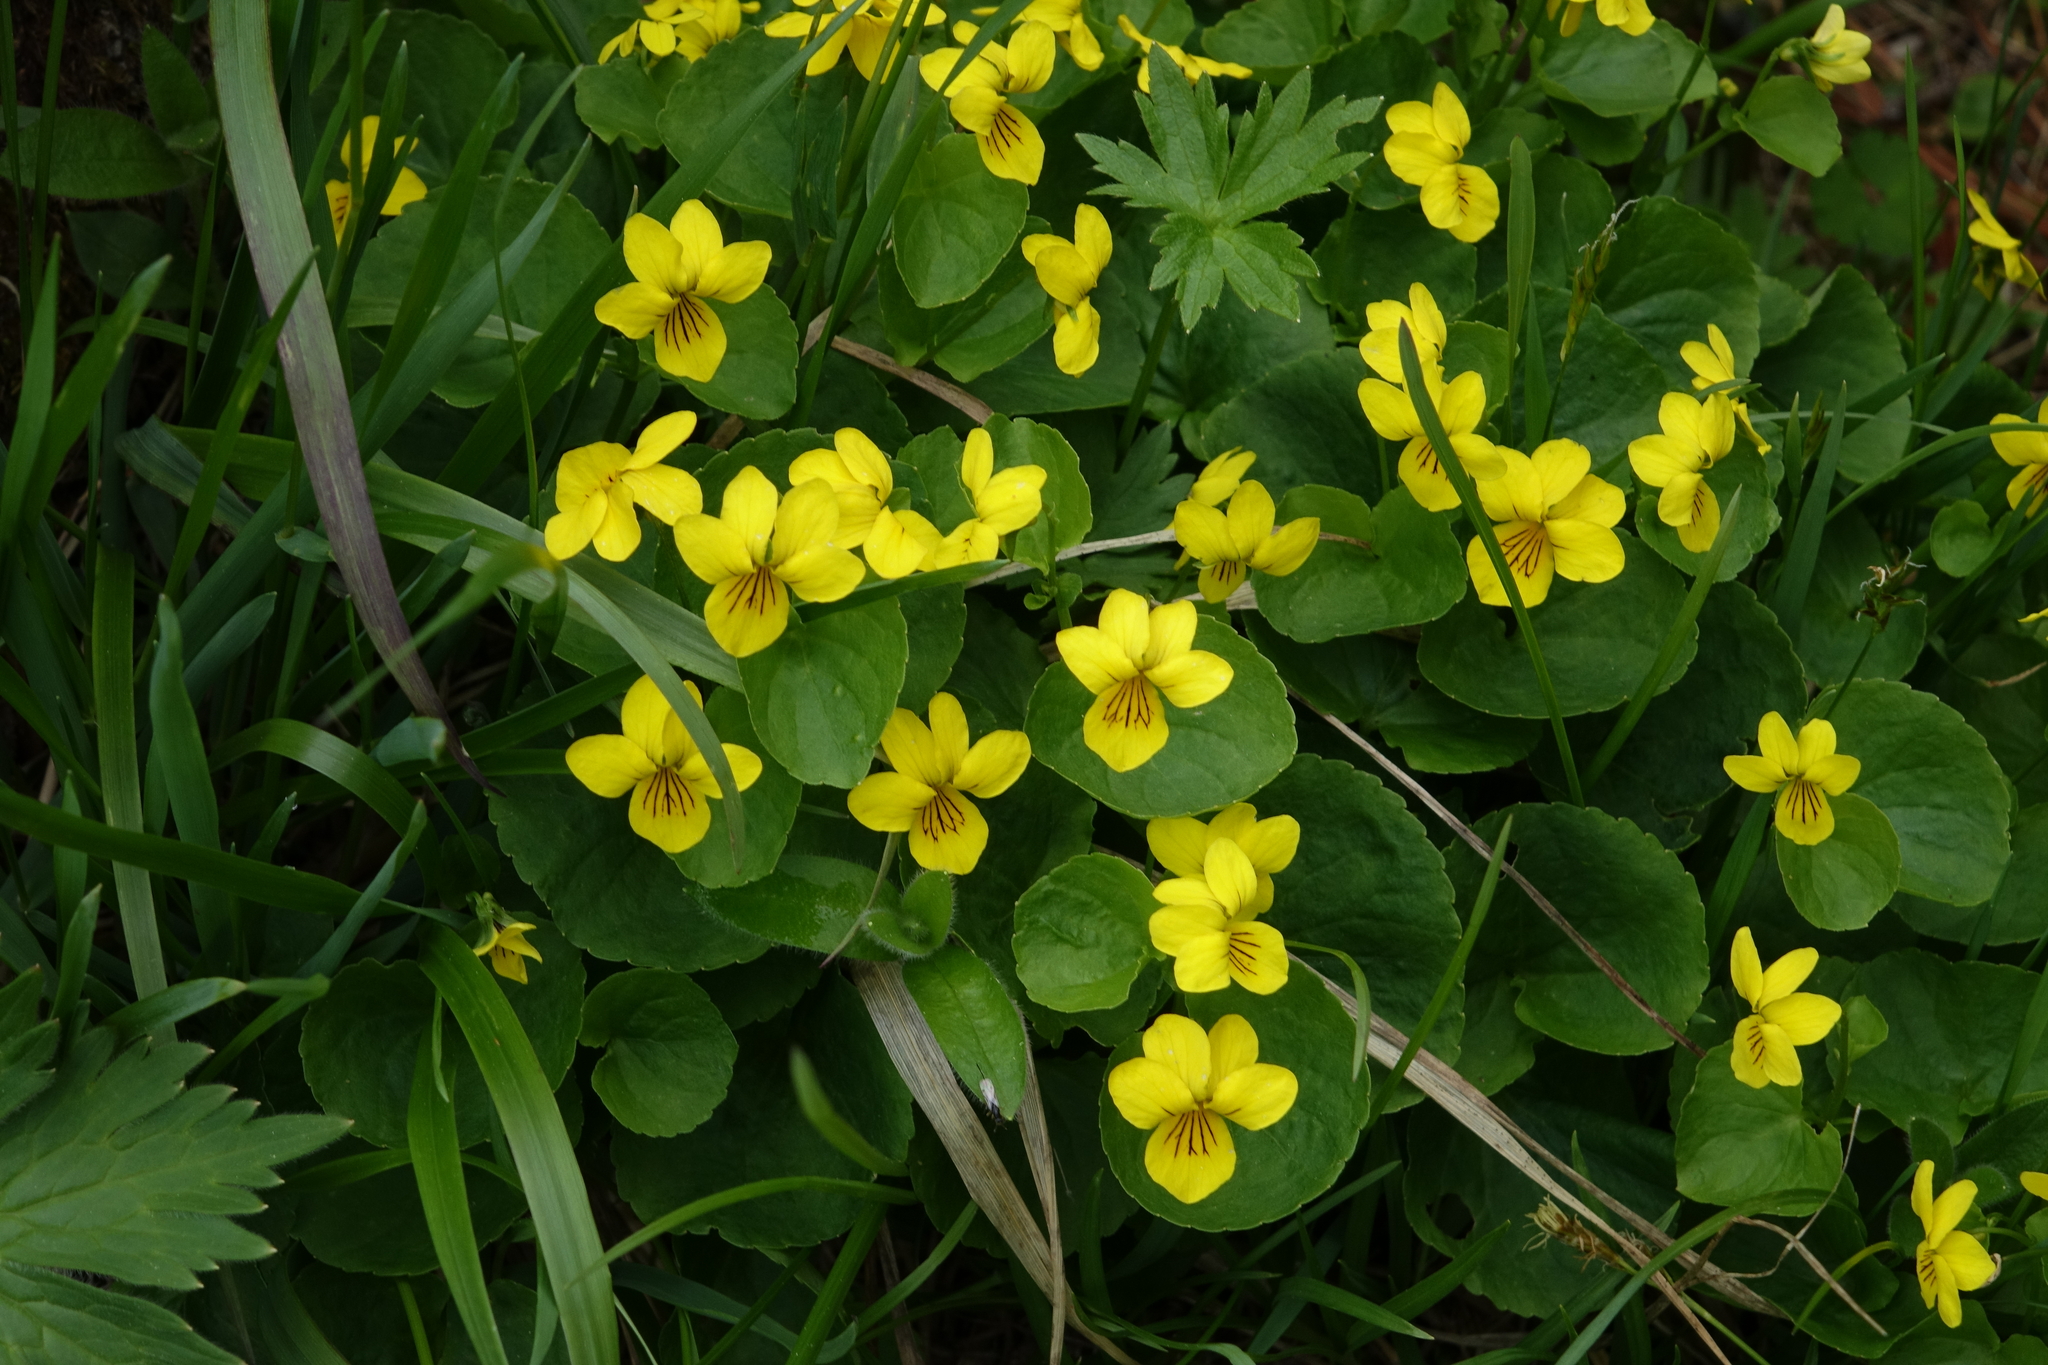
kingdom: Plantae
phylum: Tracheophyta
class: Magnoliopsida
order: Malpighiales
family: Violaceae
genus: Viola
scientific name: Viola biflora
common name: Alpine yellow violet
